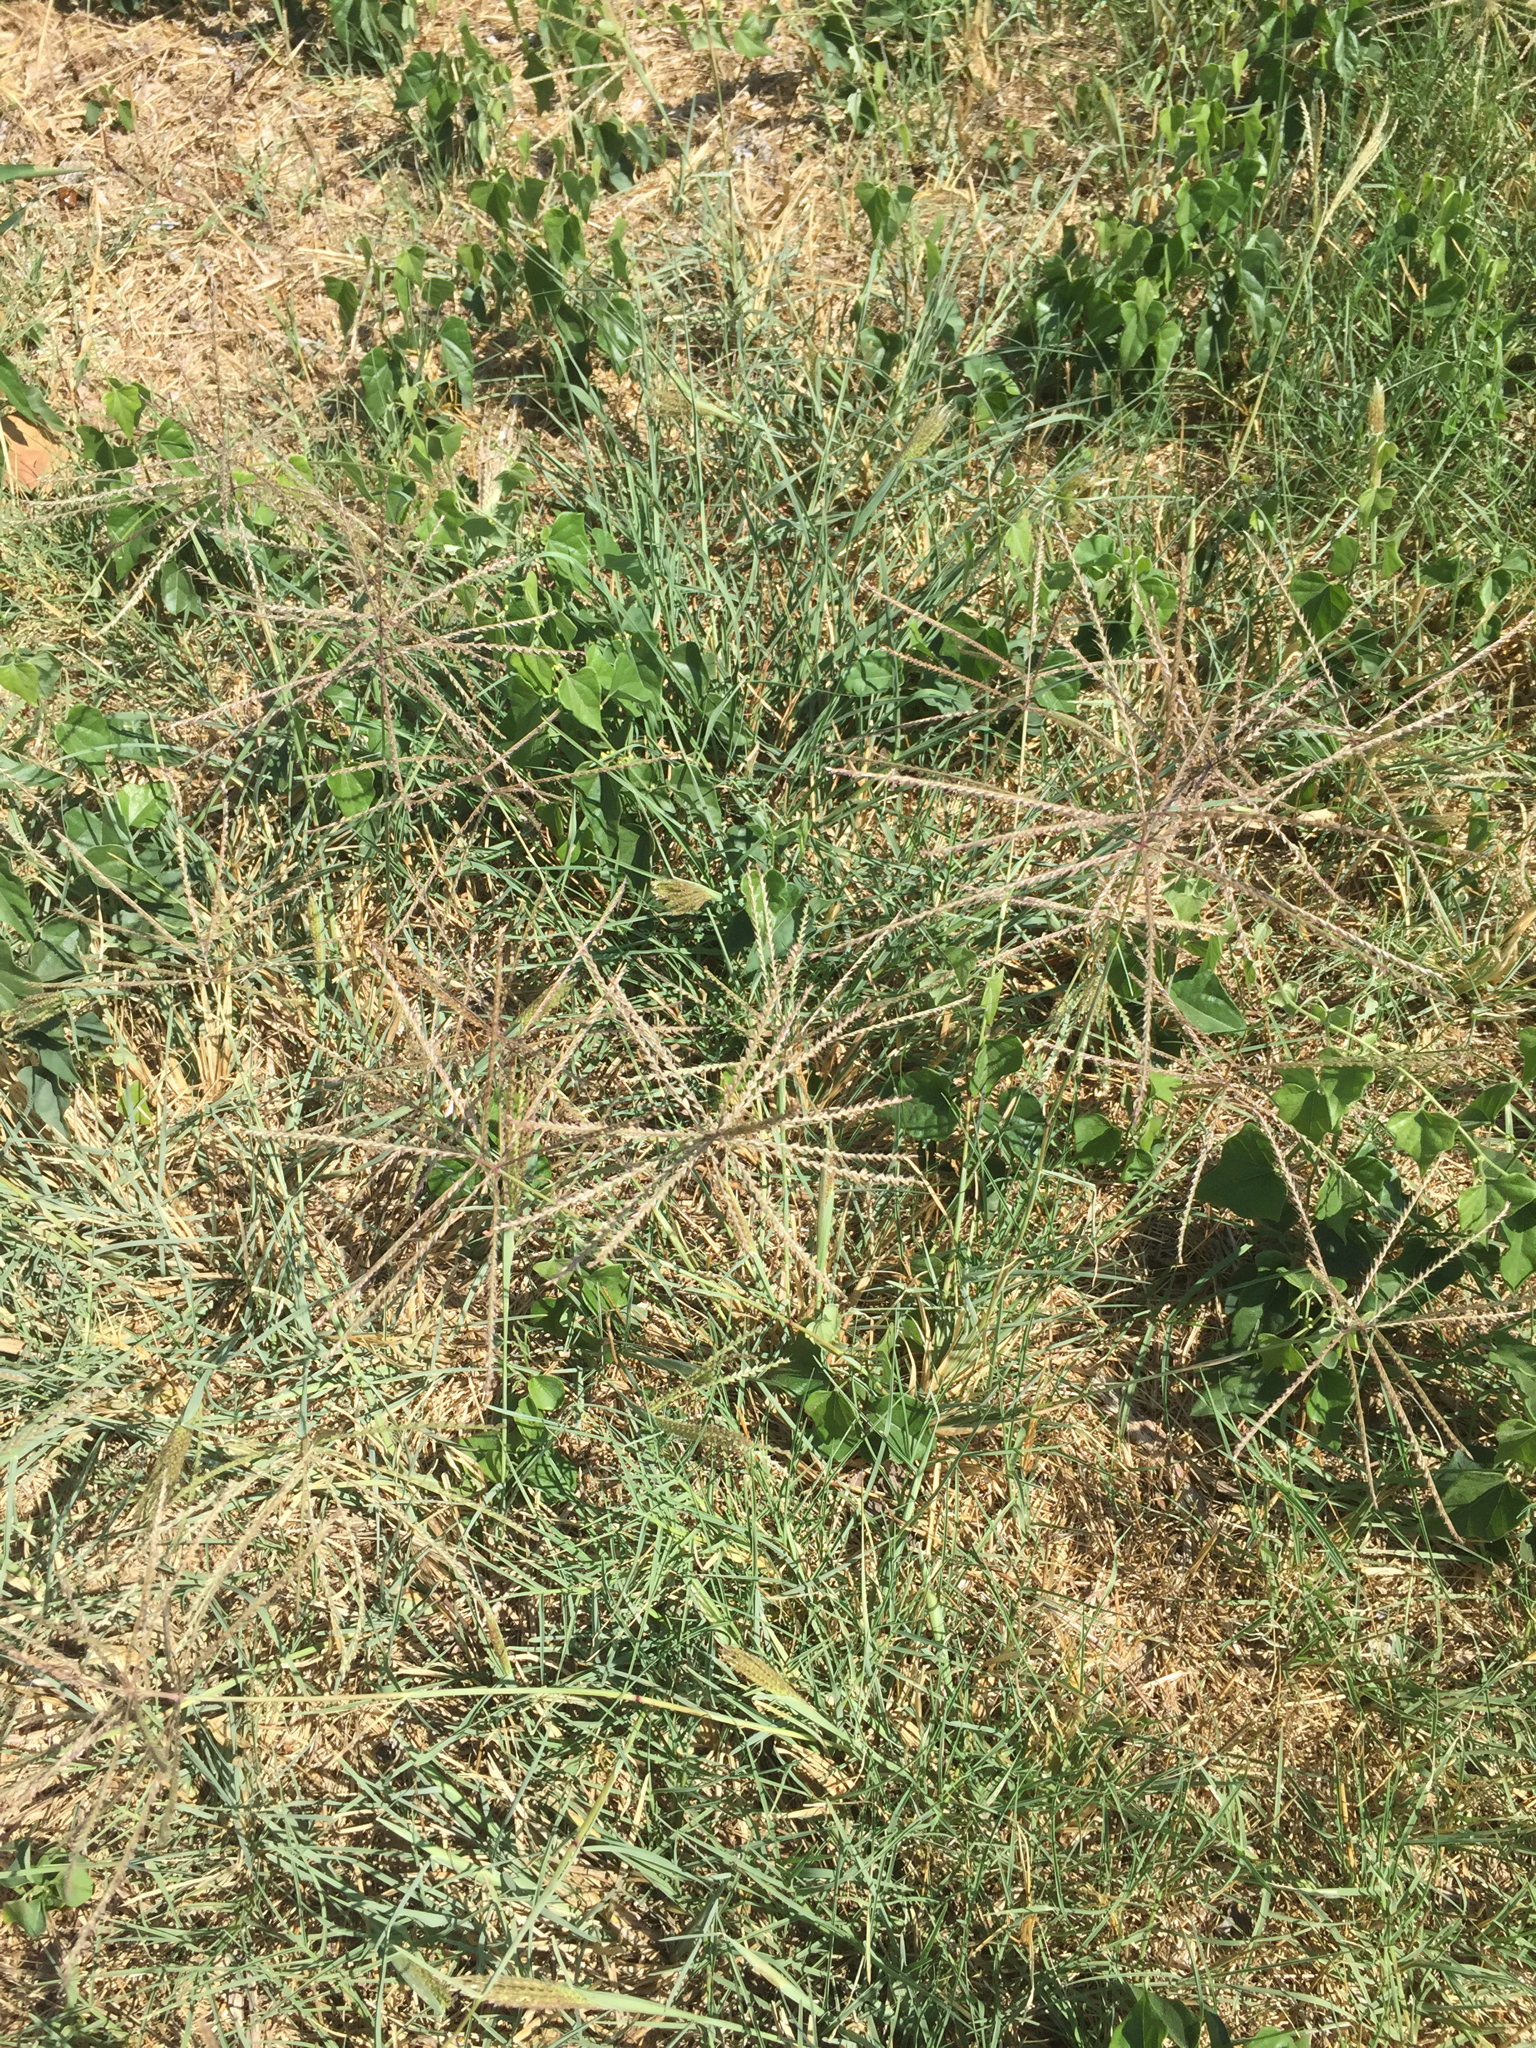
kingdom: Plantae
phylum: Tracheophyta
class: Liliopsida
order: Poales
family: Poaceae
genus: Chloris
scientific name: Chloris verticillata
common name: Tumble windmill grass
